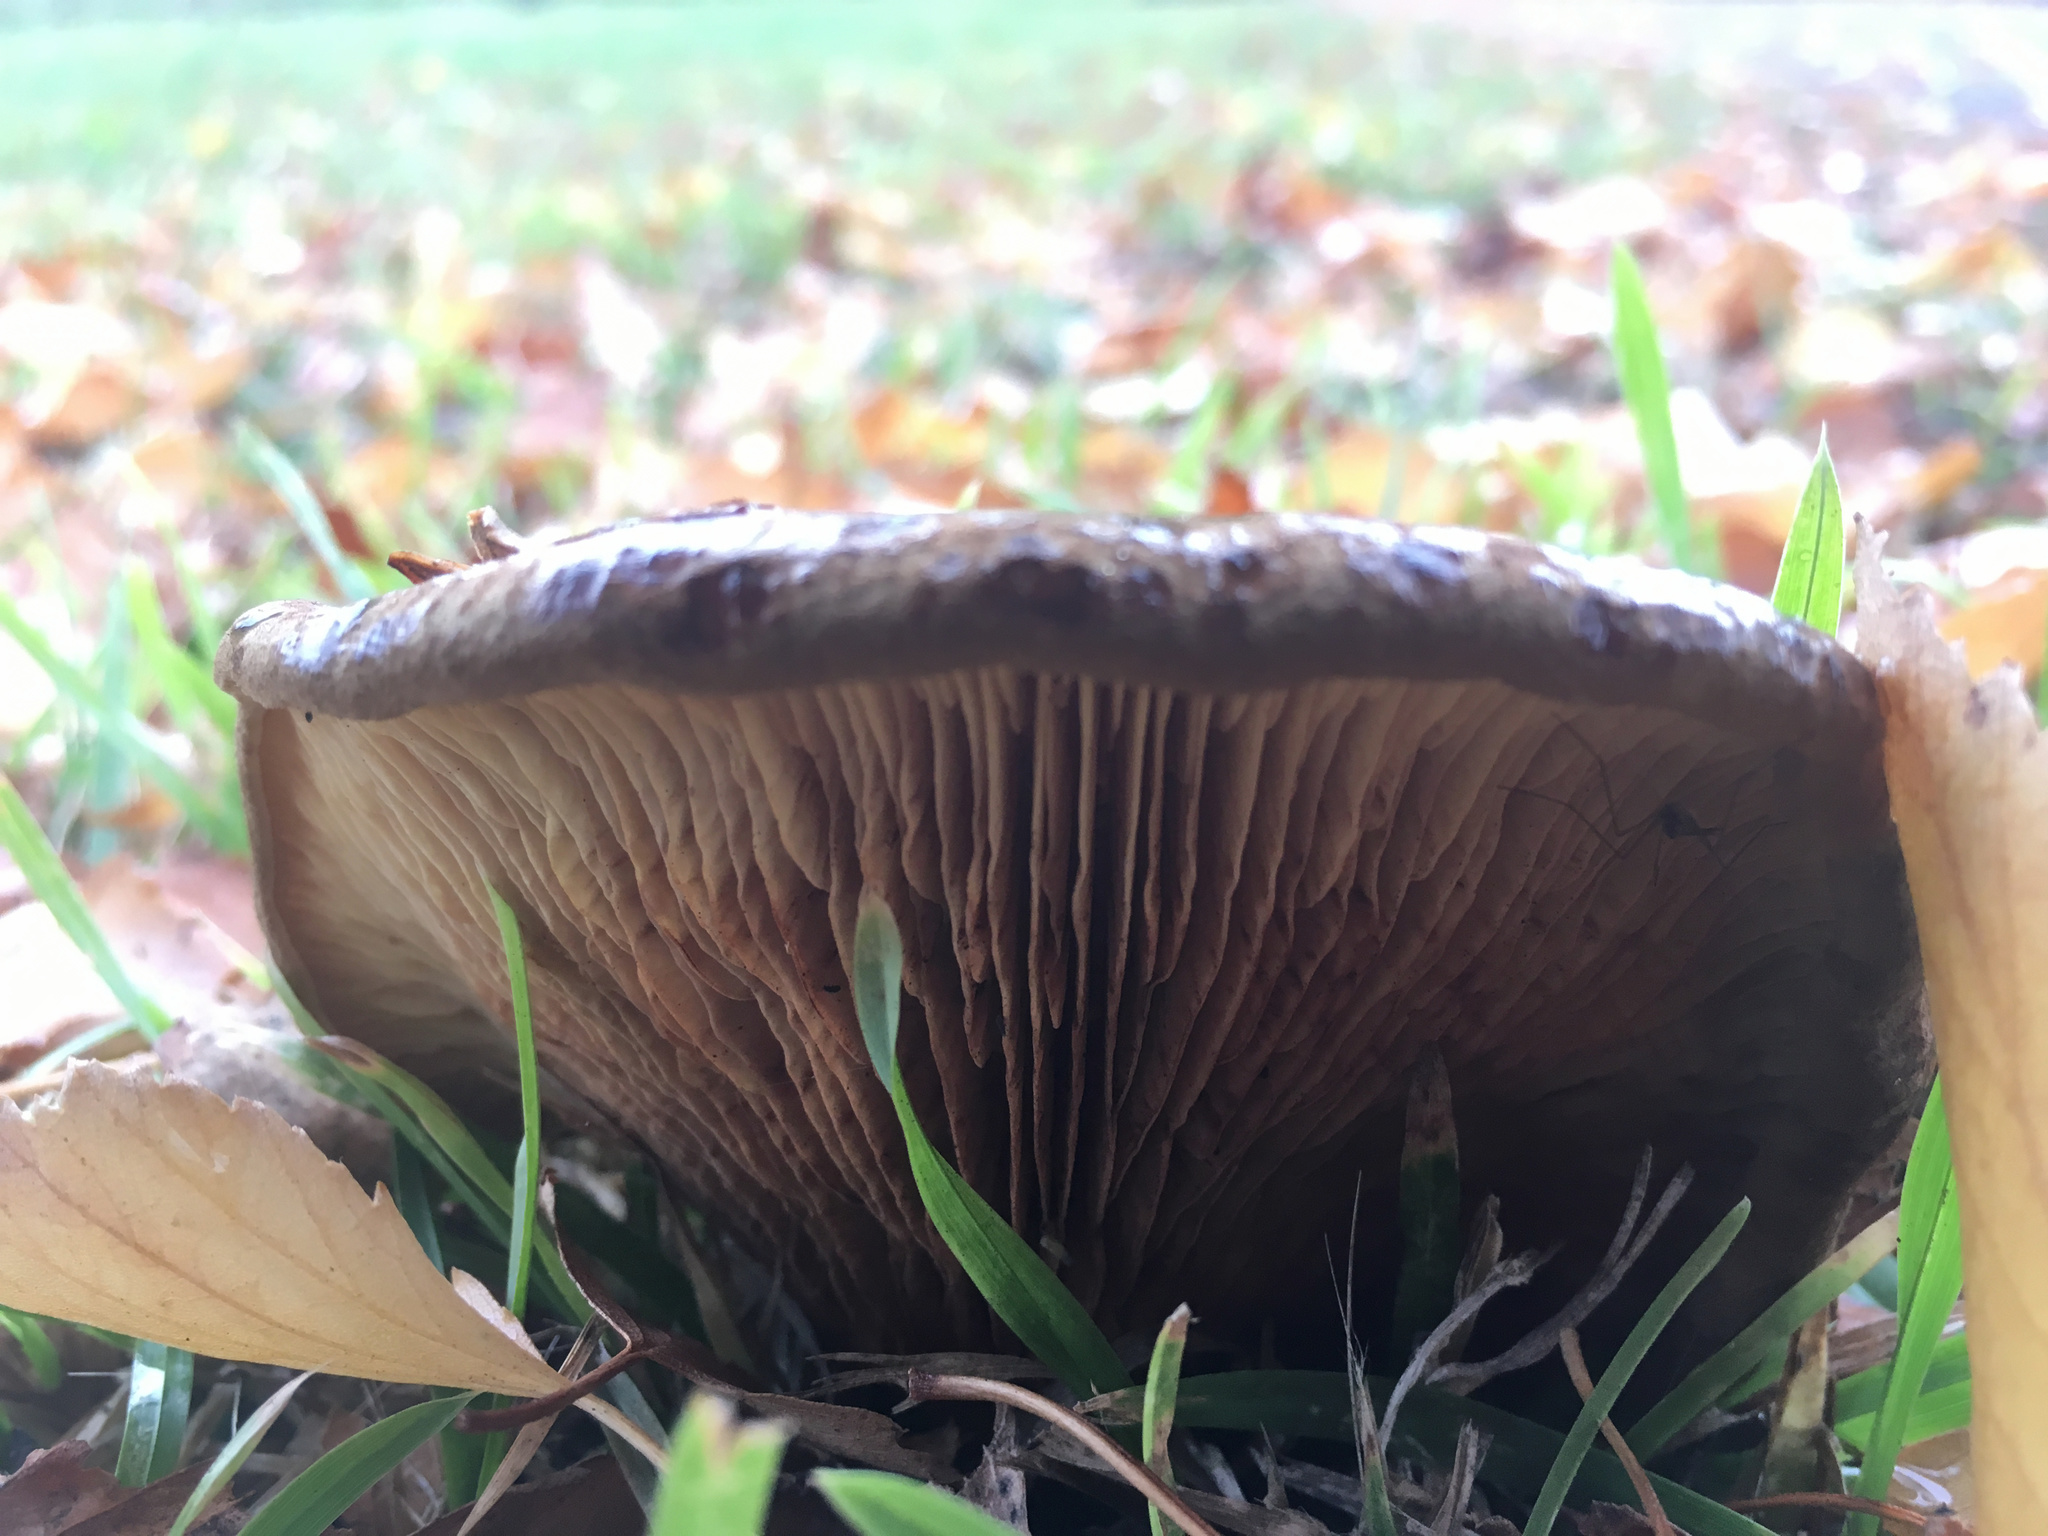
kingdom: Fungi
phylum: Basidiomycota
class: Agaricomycetes
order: Russulales
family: Russulaceae
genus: Lactarius
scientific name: Lactarius turpis
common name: Ugly milk-cap
